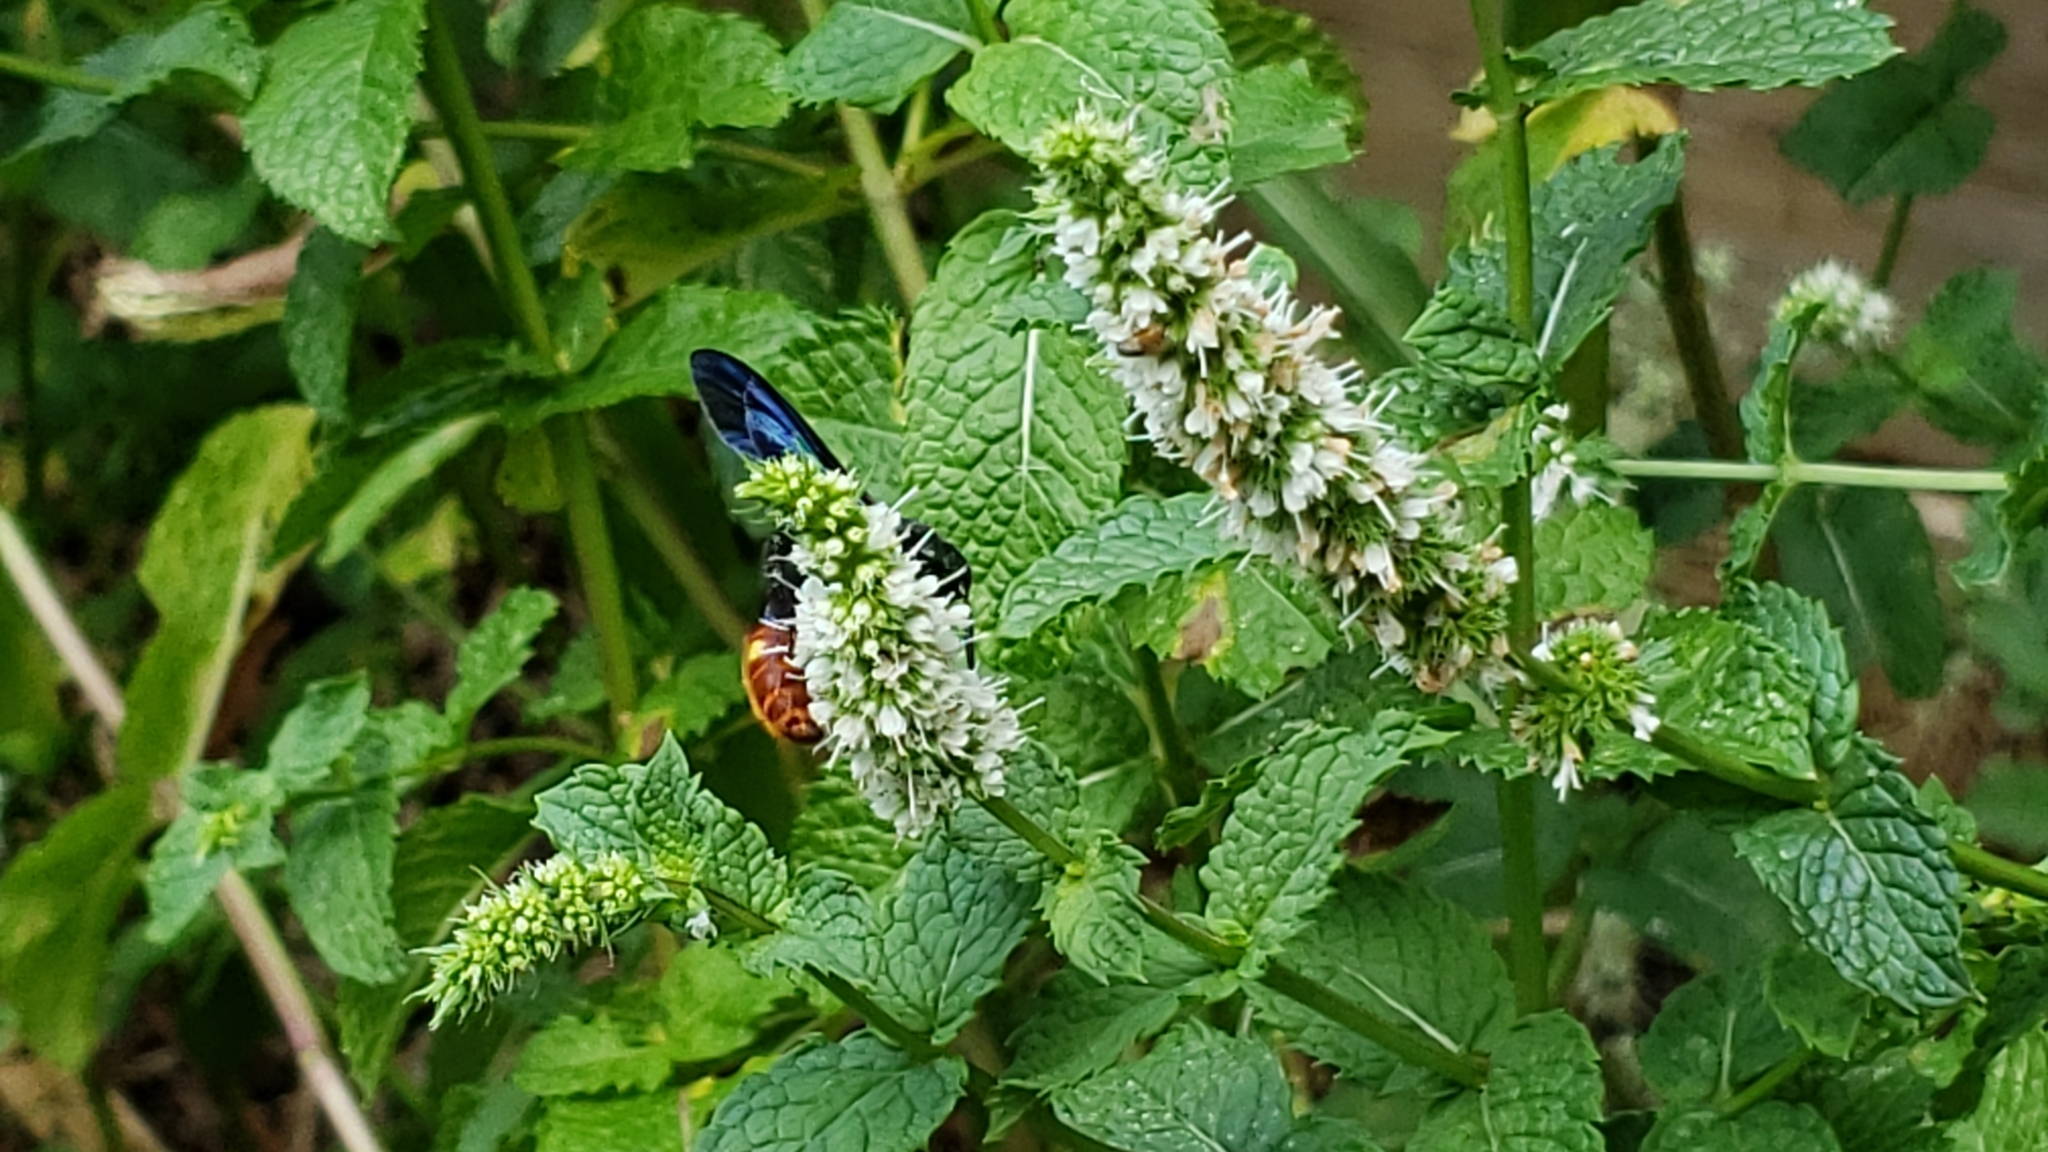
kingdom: Animalia
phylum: Arthropoda
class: Insecta
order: Hymenoptera
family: Scoliidae
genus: Scolia
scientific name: Scolia dubia
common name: Blue-winged scoliid wasp
